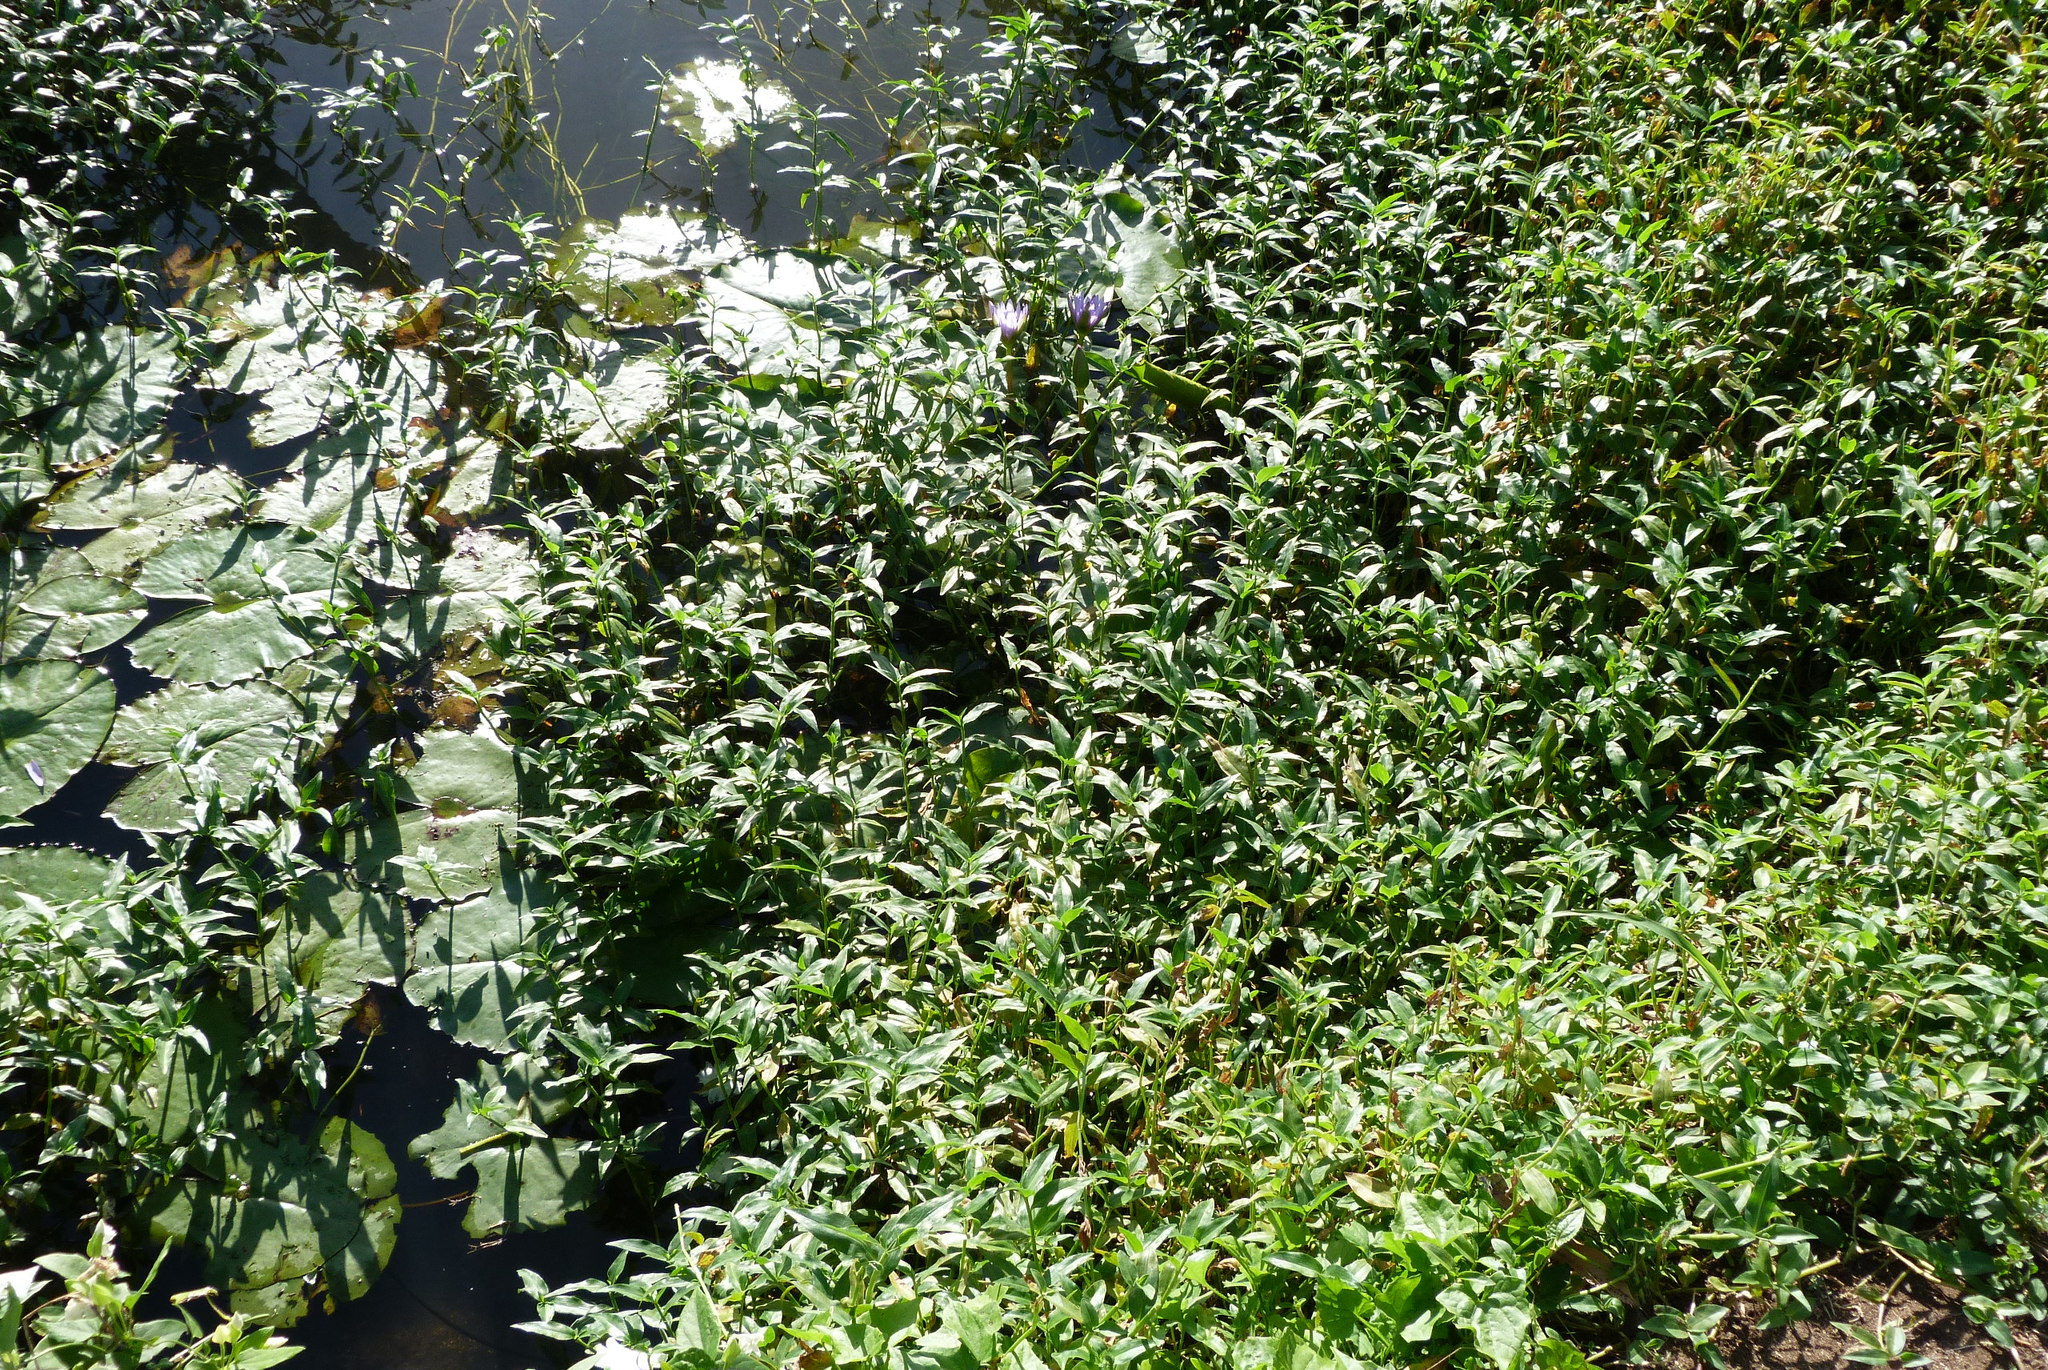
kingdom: Plantae
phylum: Tracheophyta
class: Liliopsida
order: Commelinales
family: Commelinaceae
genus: Commelina
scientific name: Commelina diffusa
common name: Climbing dayflower
